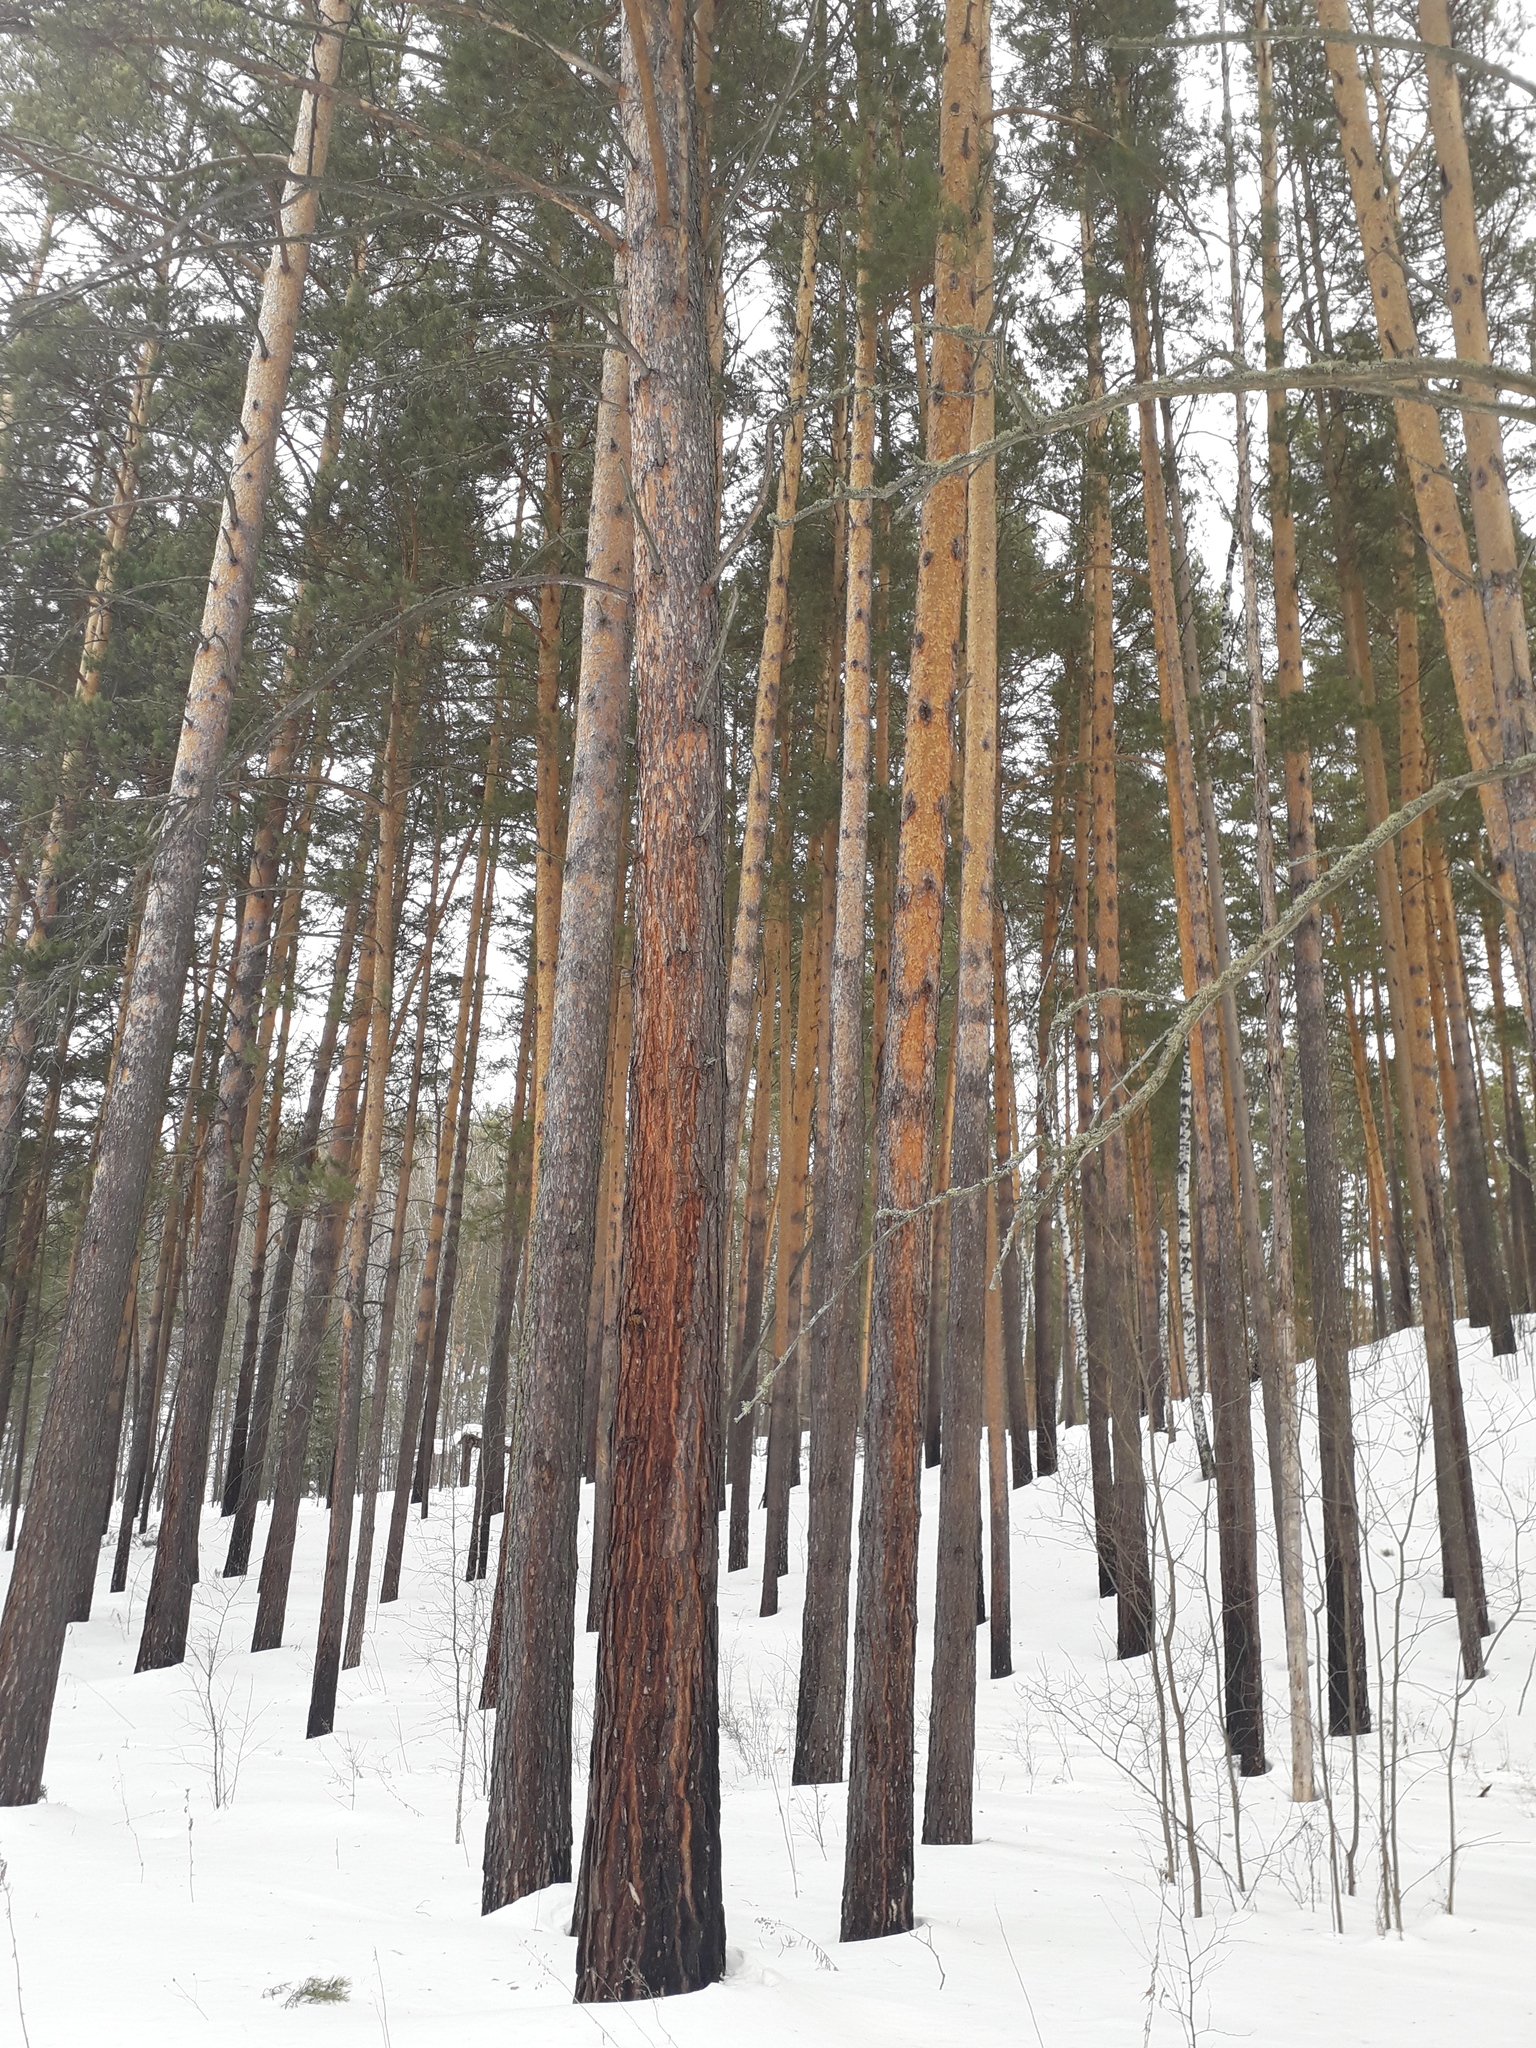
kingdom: Plantae
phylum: Tracheophyta
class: Pinopsida
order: Pinales
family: Pinaceae
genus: Pinus
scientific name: Pinus sylvestris
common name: Scots pine
